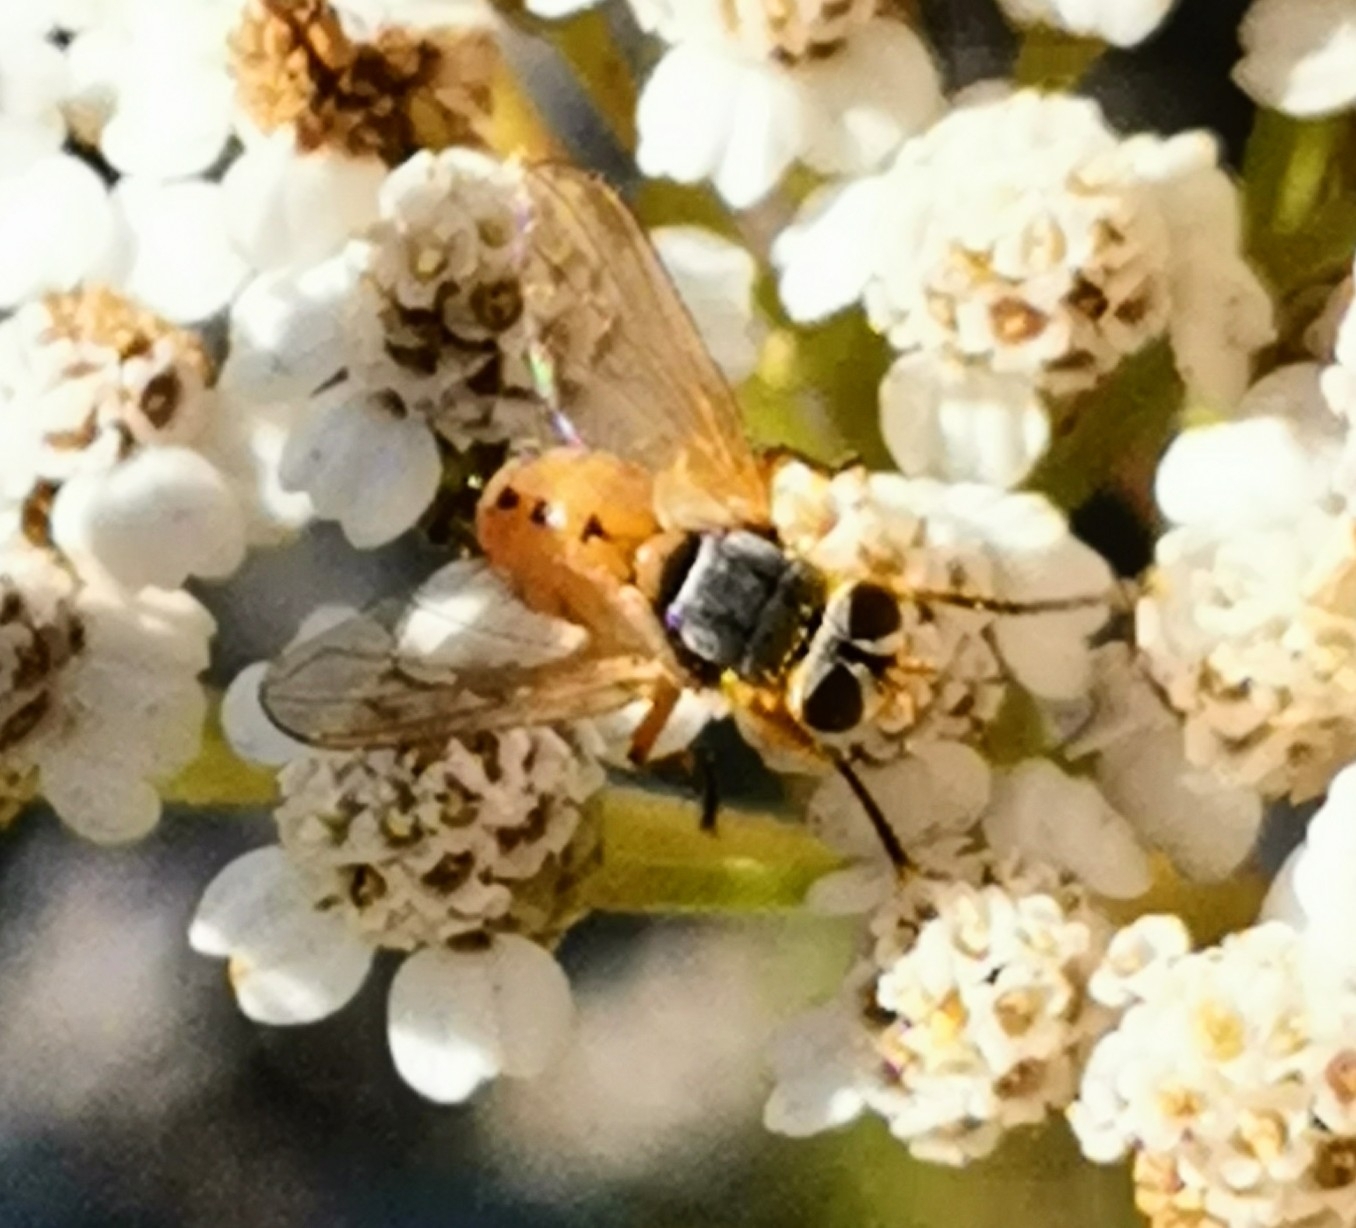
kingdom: Animalia
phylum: Arthropoda
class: Insecta
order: Diptera
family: Tachinidae
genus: Subclytia
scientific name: Subclytia rotundiventris
